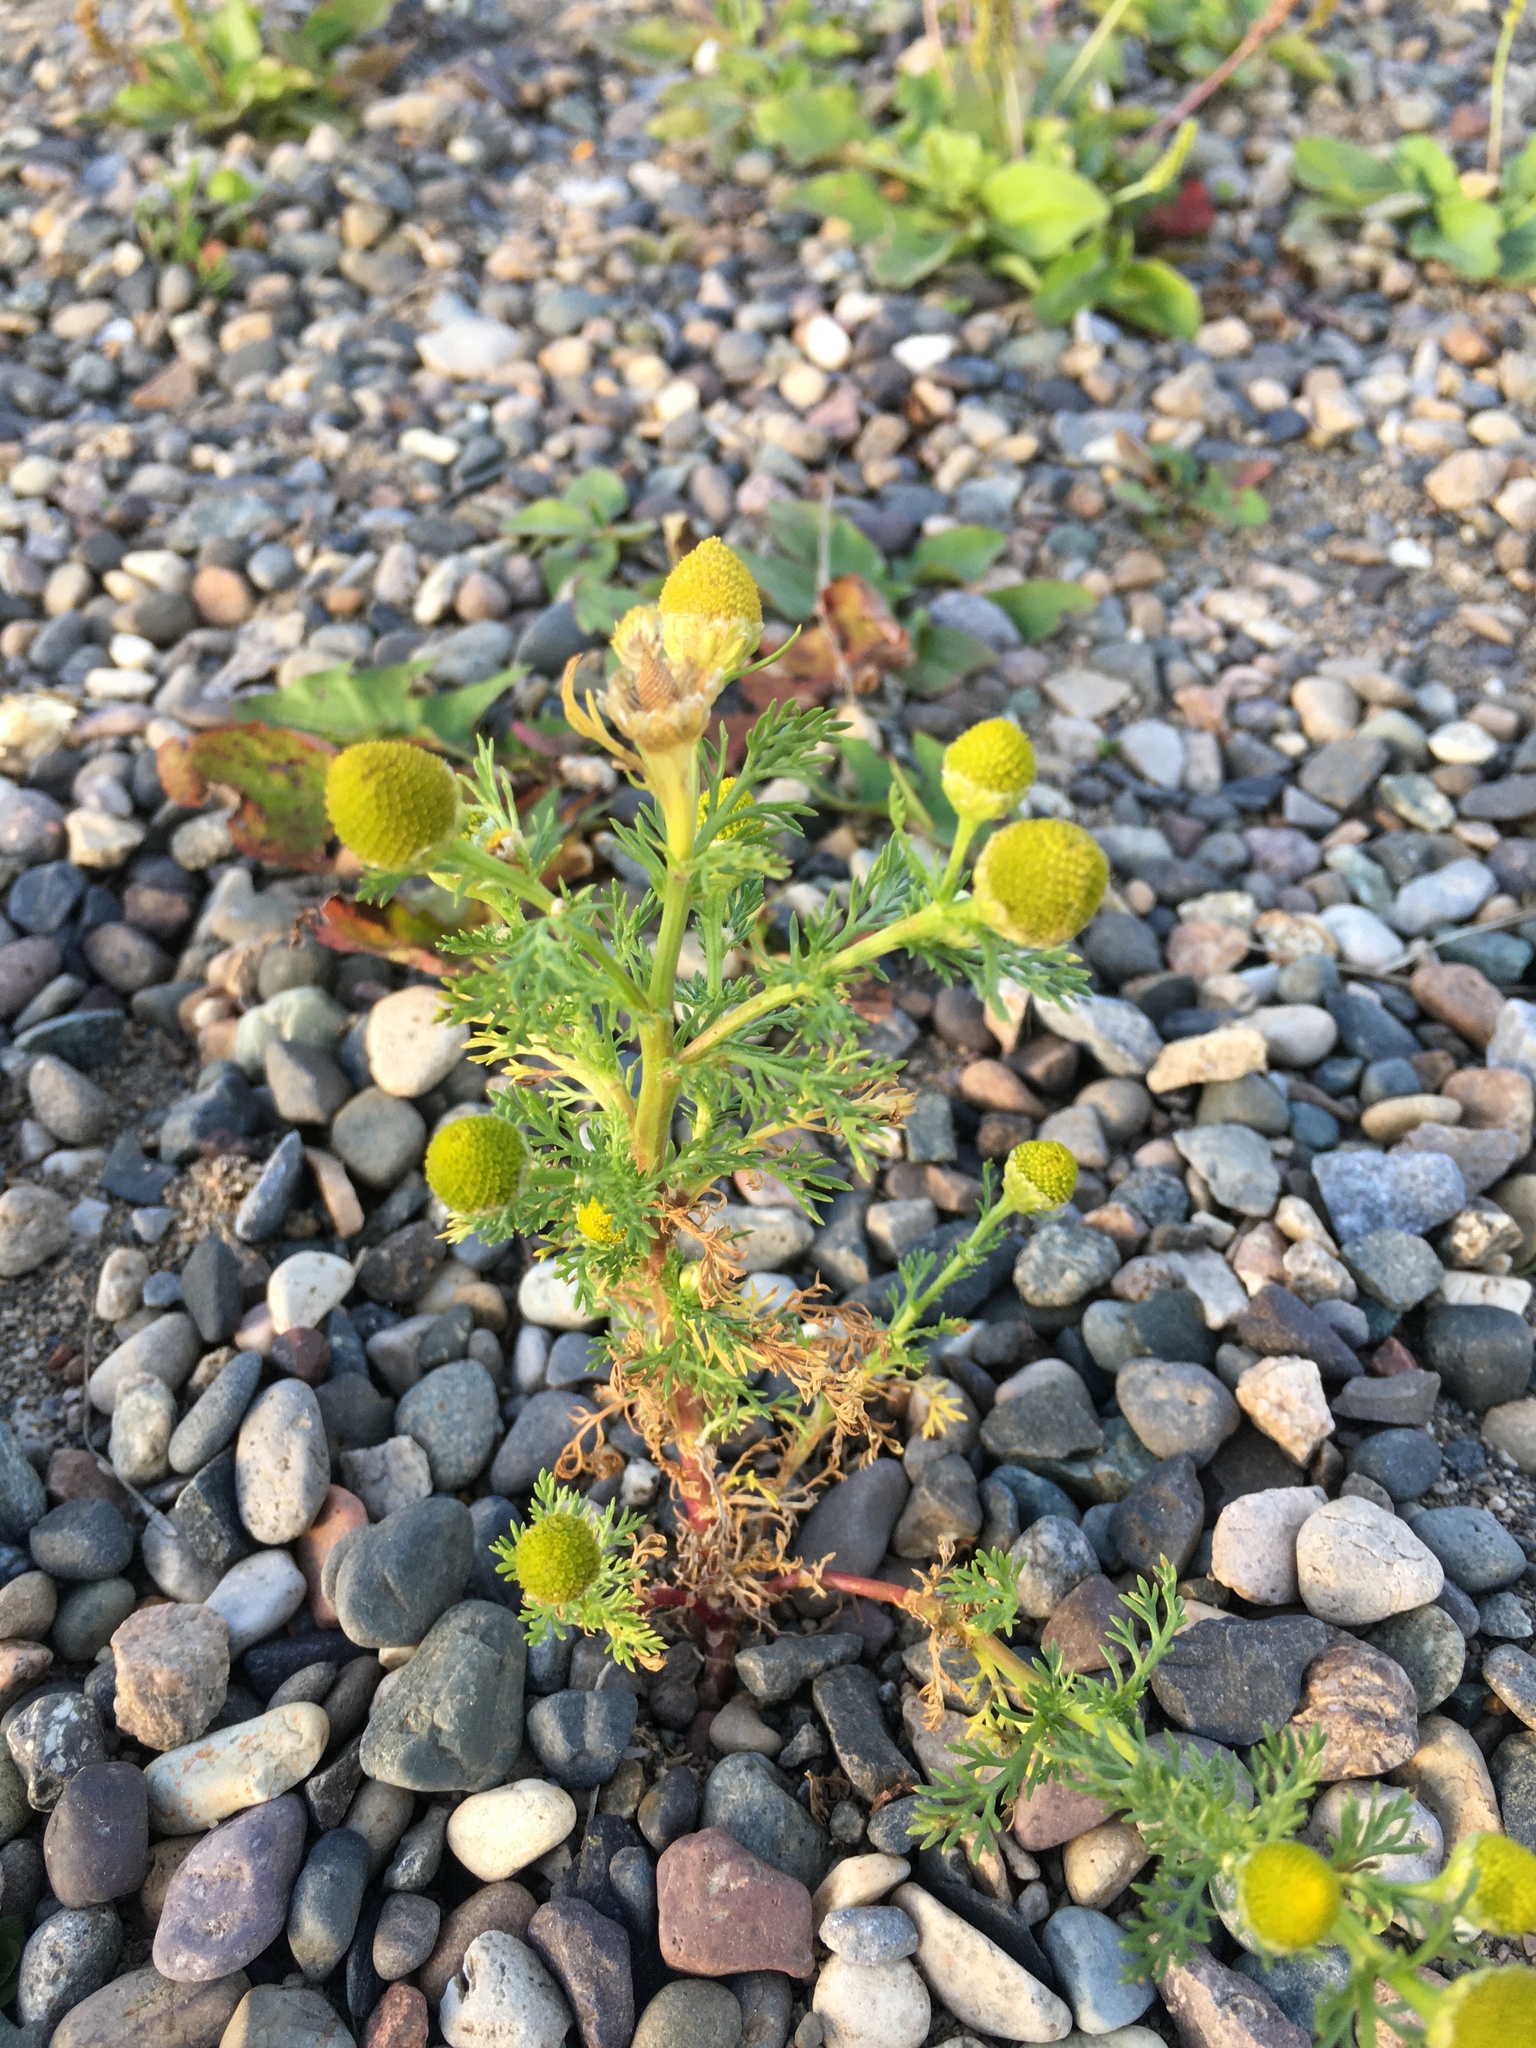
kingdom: Plantae
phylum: Tracheophyta
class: Magnoliopsida
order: Asterales
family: Asteraceae
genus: Matricaria
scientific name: Matricaria discoidea
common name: Disc mayweed
